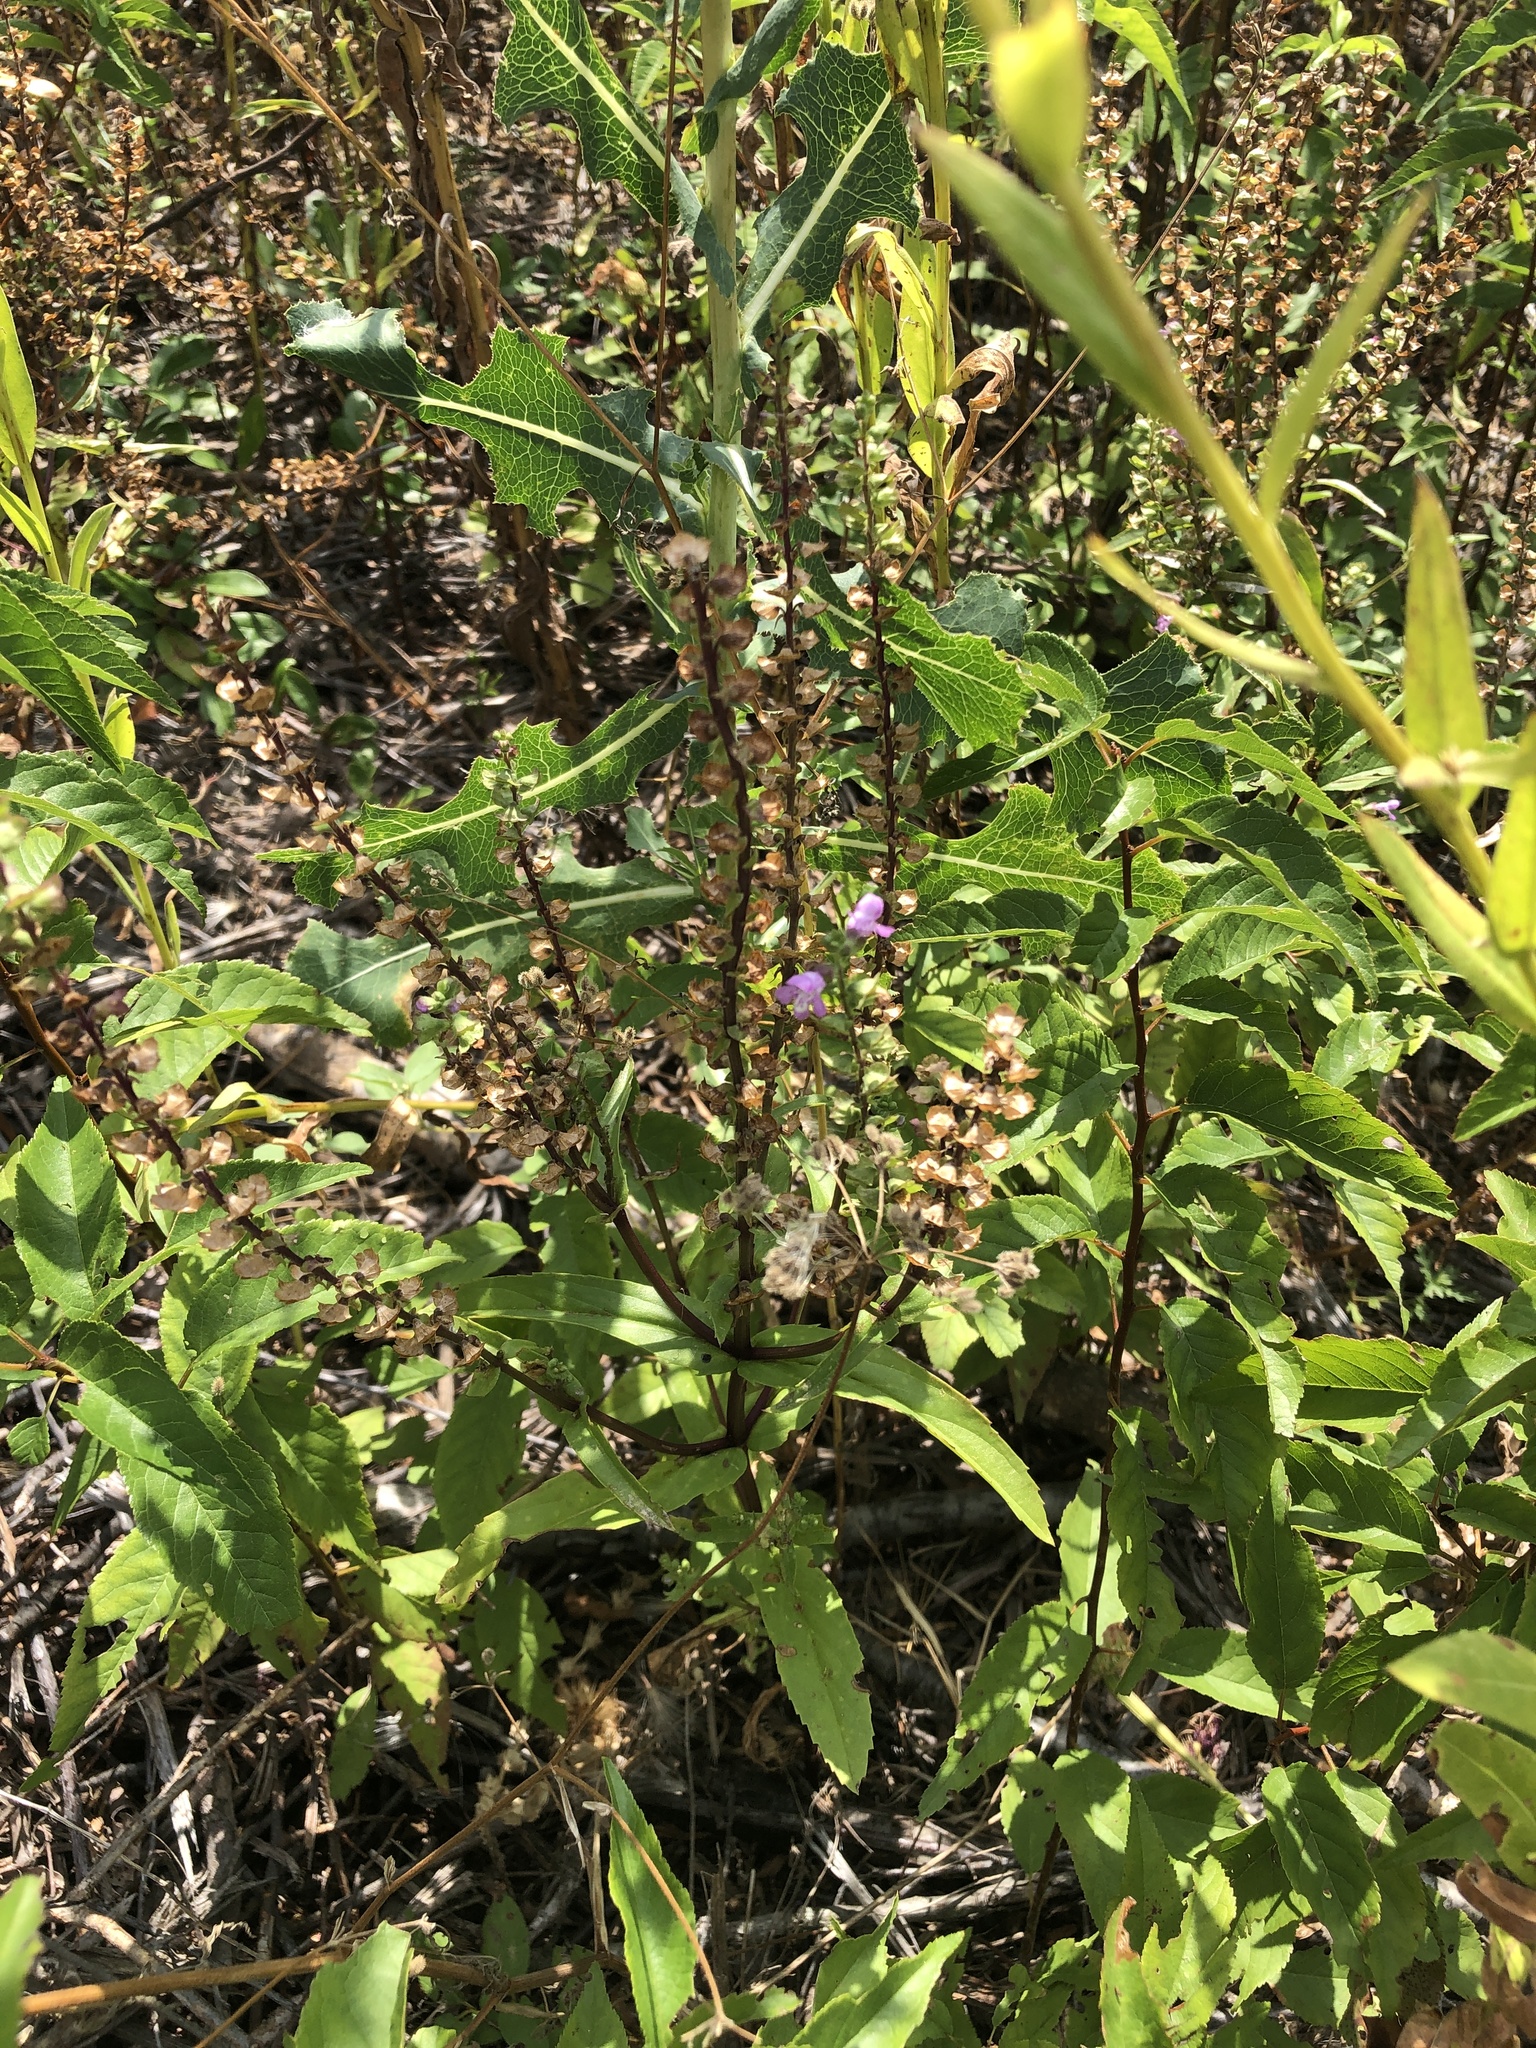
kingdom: Plantae
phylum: Tracheophyta
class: Magnoliopsida
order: Lamiales
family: Lamiaceae
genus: Warnockia
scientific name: Warnockia scutellarioides
